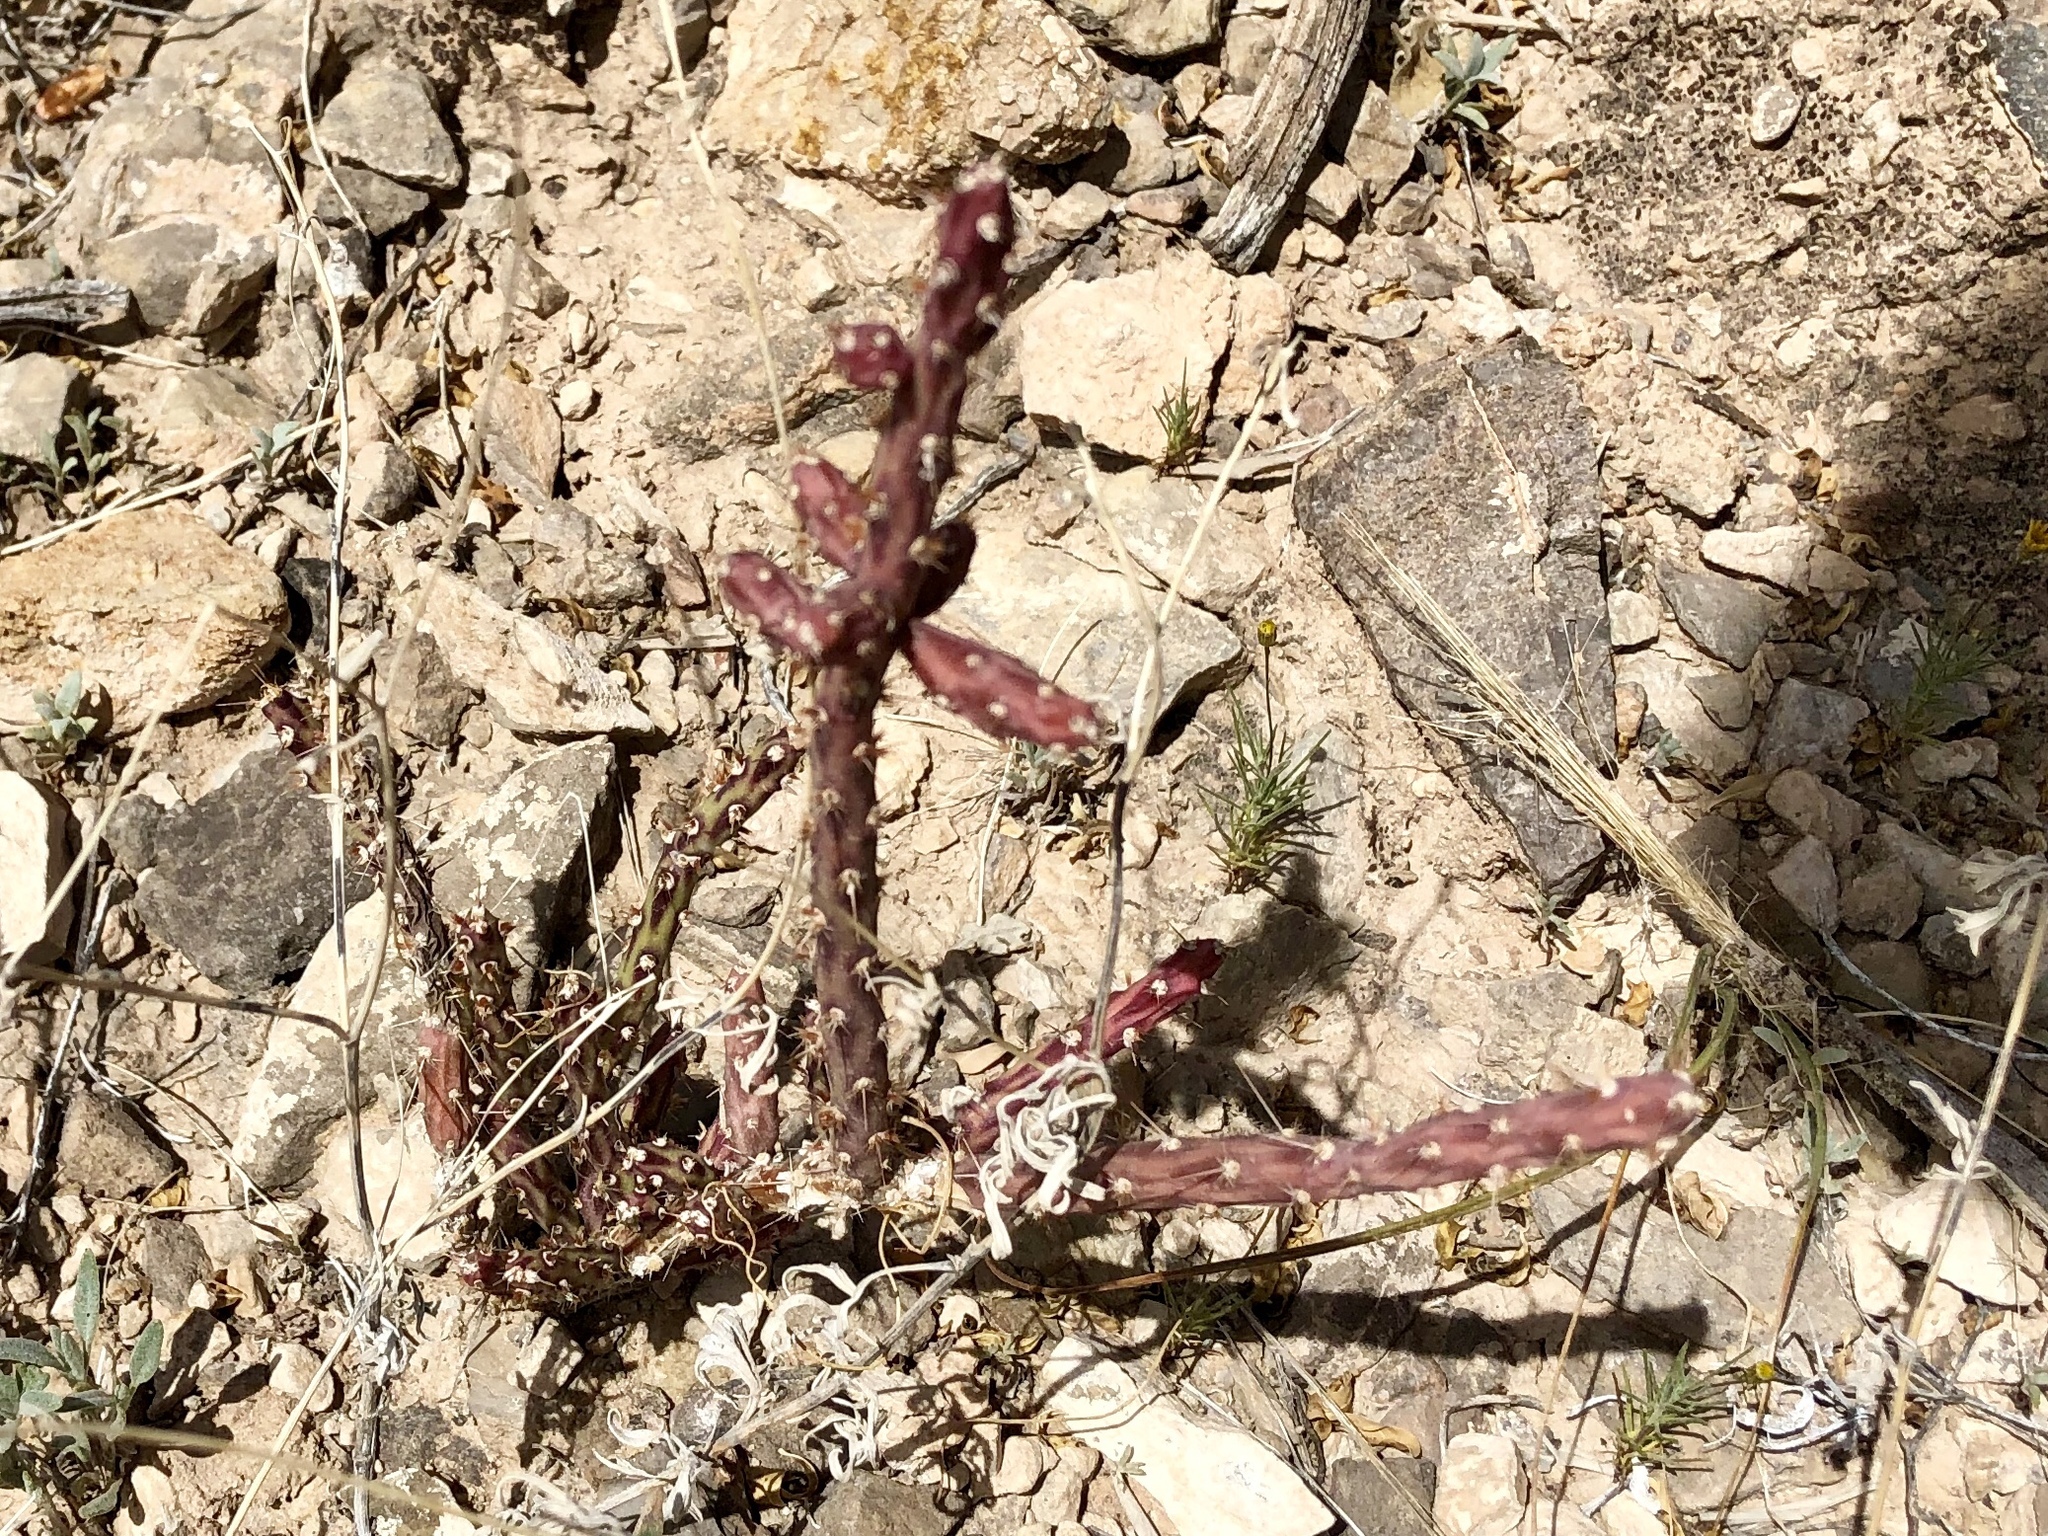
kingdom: Plantae
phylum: Tracheophyta
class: Magnoliopsida
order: Caryophyllales
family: Cactaceae
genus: Cylindropuntia
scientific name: Cylindropuntia leptocaulis
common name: Christmas cactus
